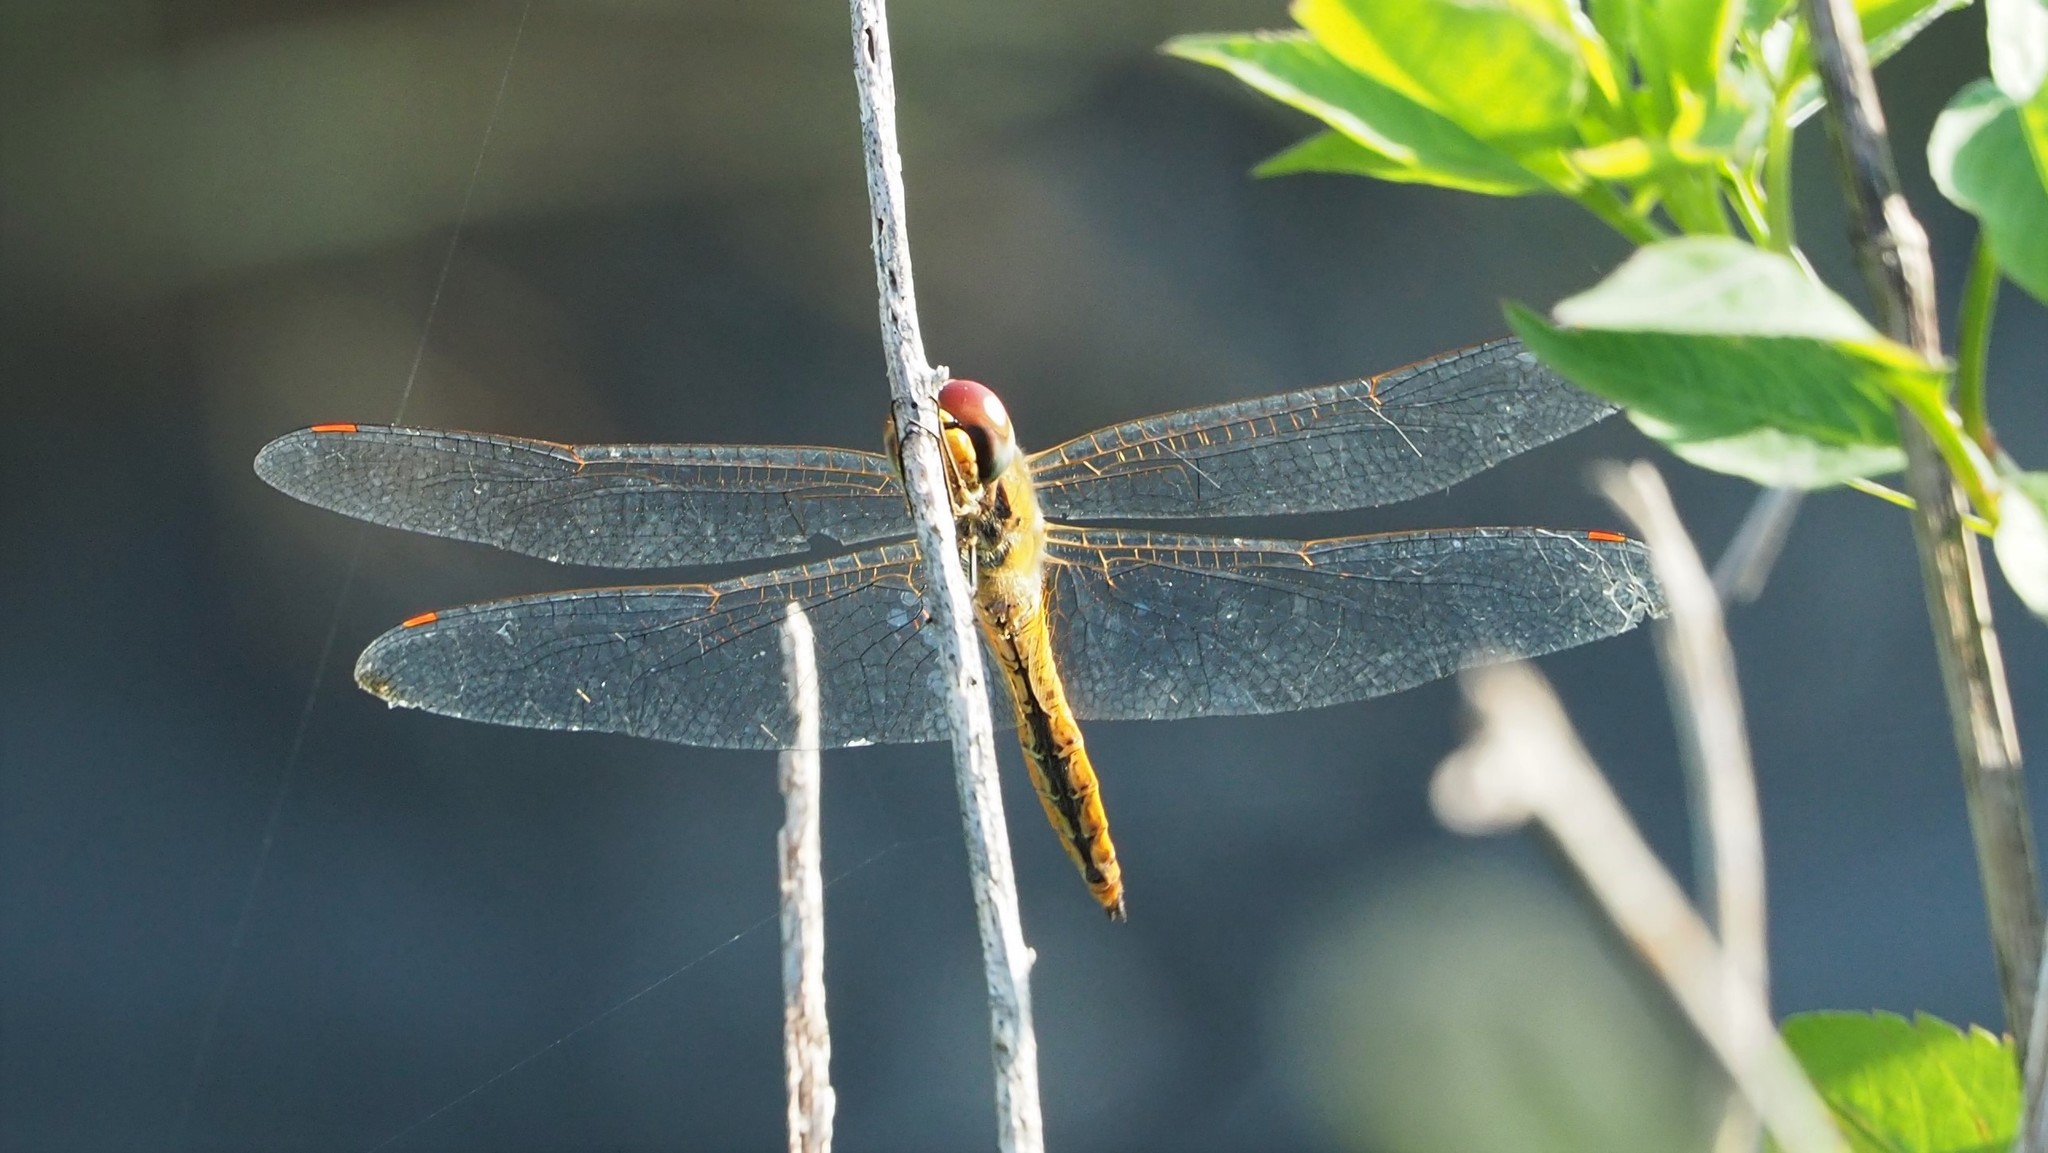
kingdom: Animalia
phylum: Arthropoda
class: Insecta
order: Odonata
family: Libellulidae
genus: Pantala
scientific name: Pantala flavescens
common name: Wandering glider
